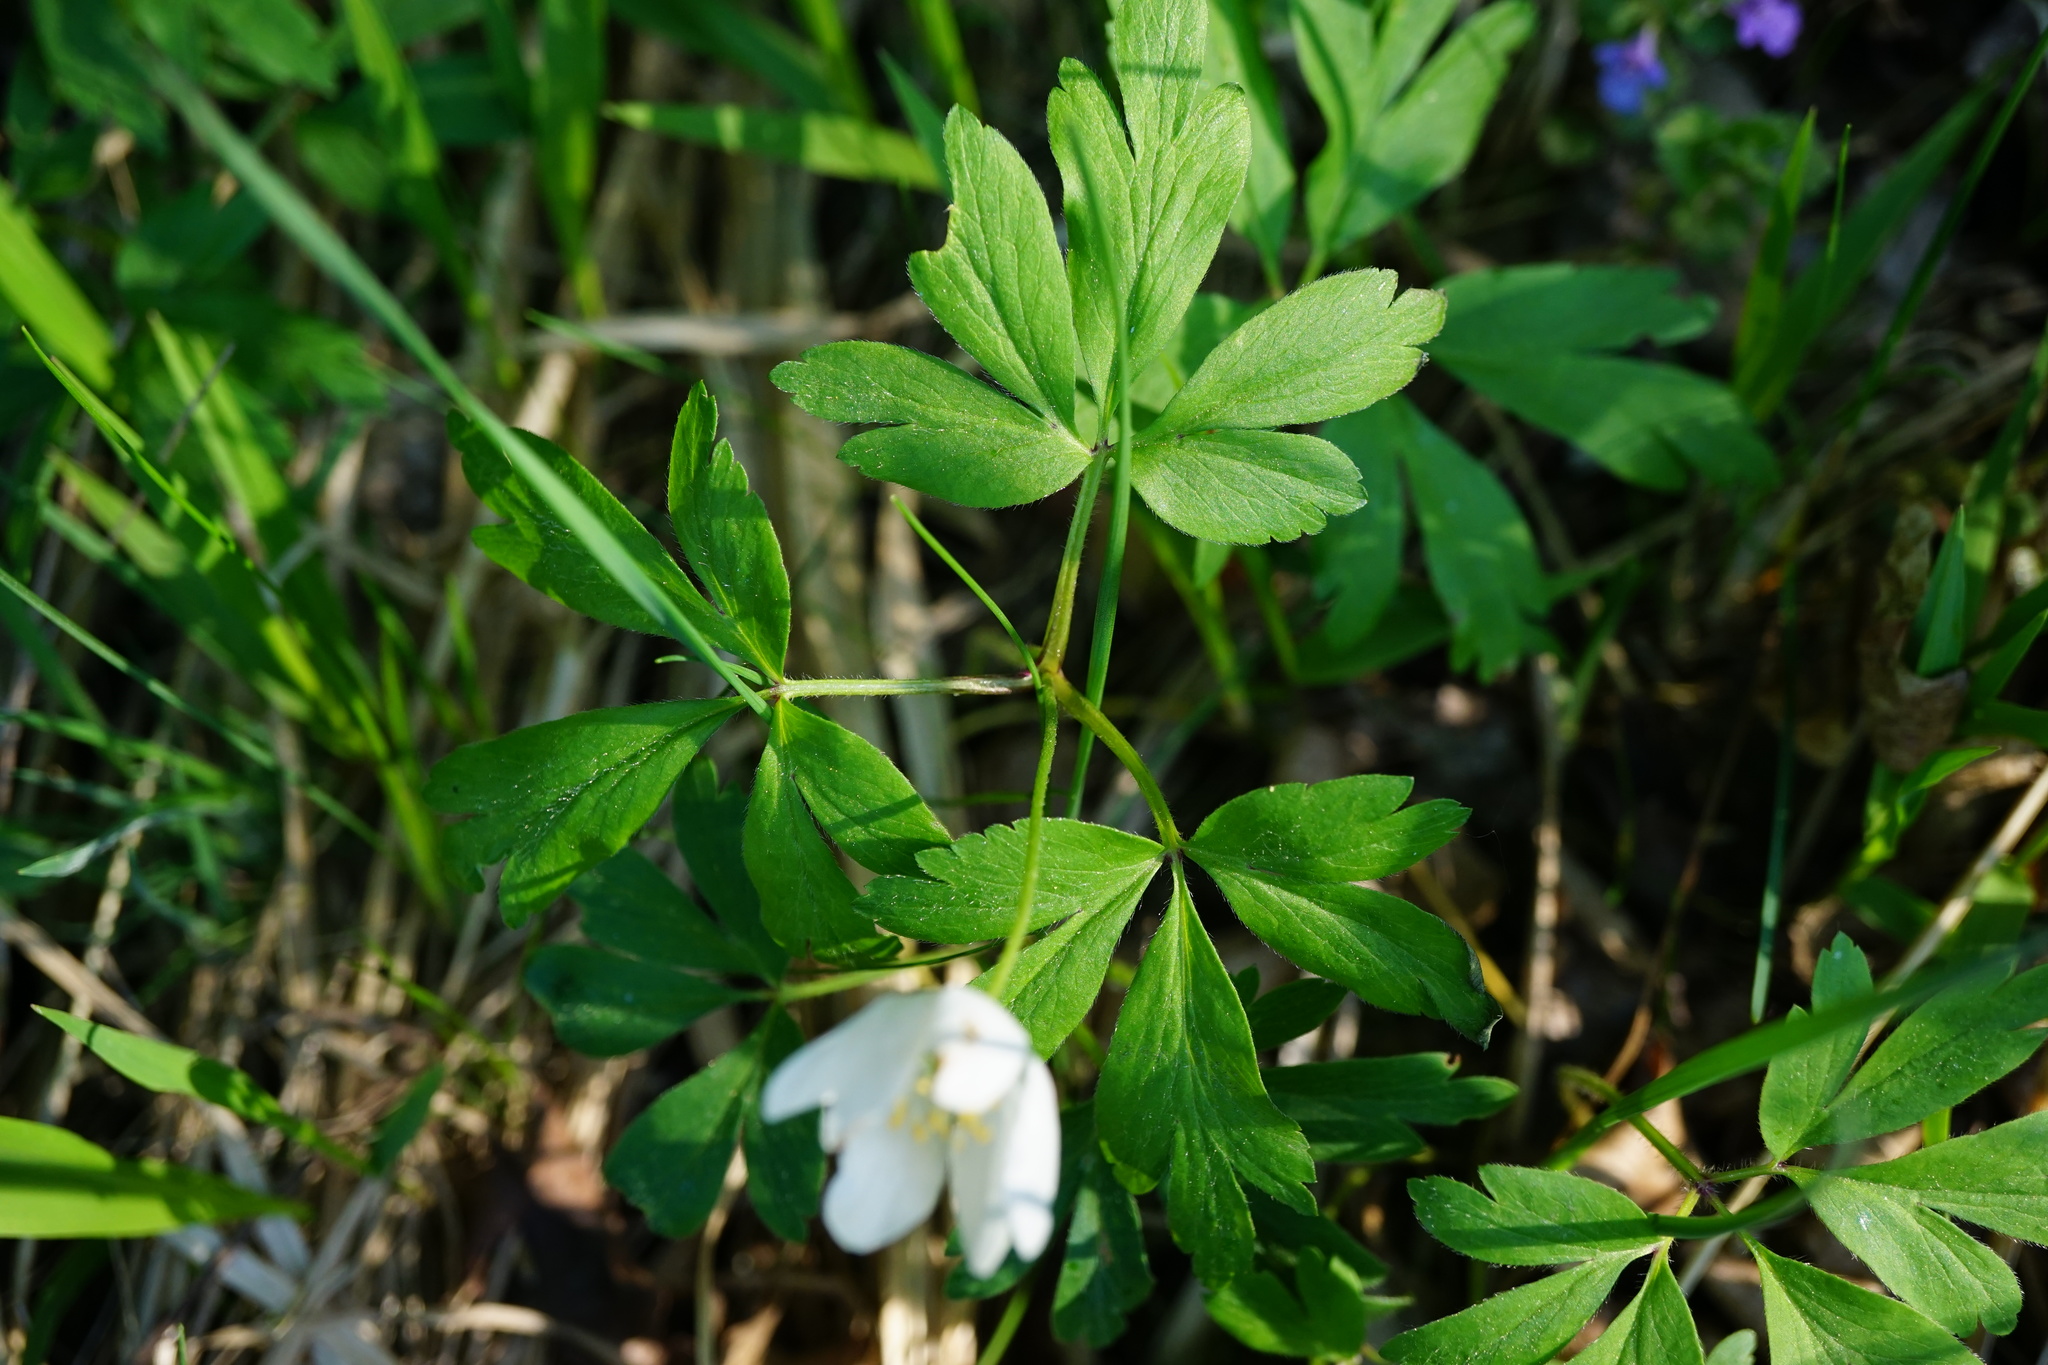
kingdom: Plantae
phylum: Tracheophyta
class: Magnoliopsida
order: Ranunculales
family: Ranunculaceae
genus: Anemone
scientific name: Anemone nemorosa
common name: Wood anemone
